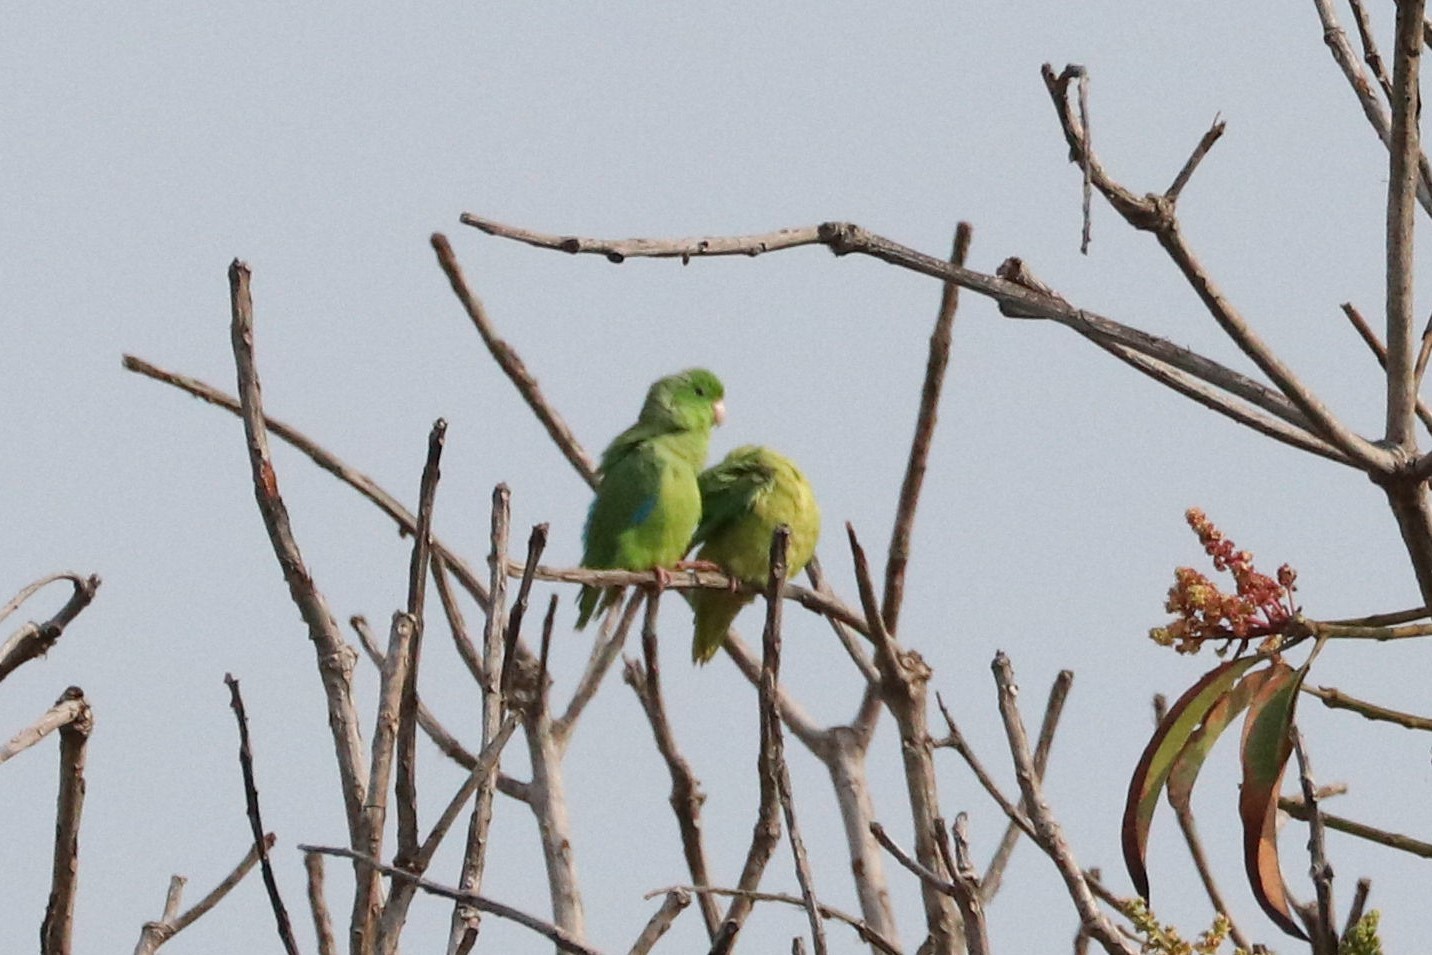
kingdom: Animalia
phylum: Chordata
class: Aves
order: Psittaciformes
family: Psittacidae
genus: Forpus
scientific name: Forpus xanthopterygius
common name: Blue-winged parrotlet
